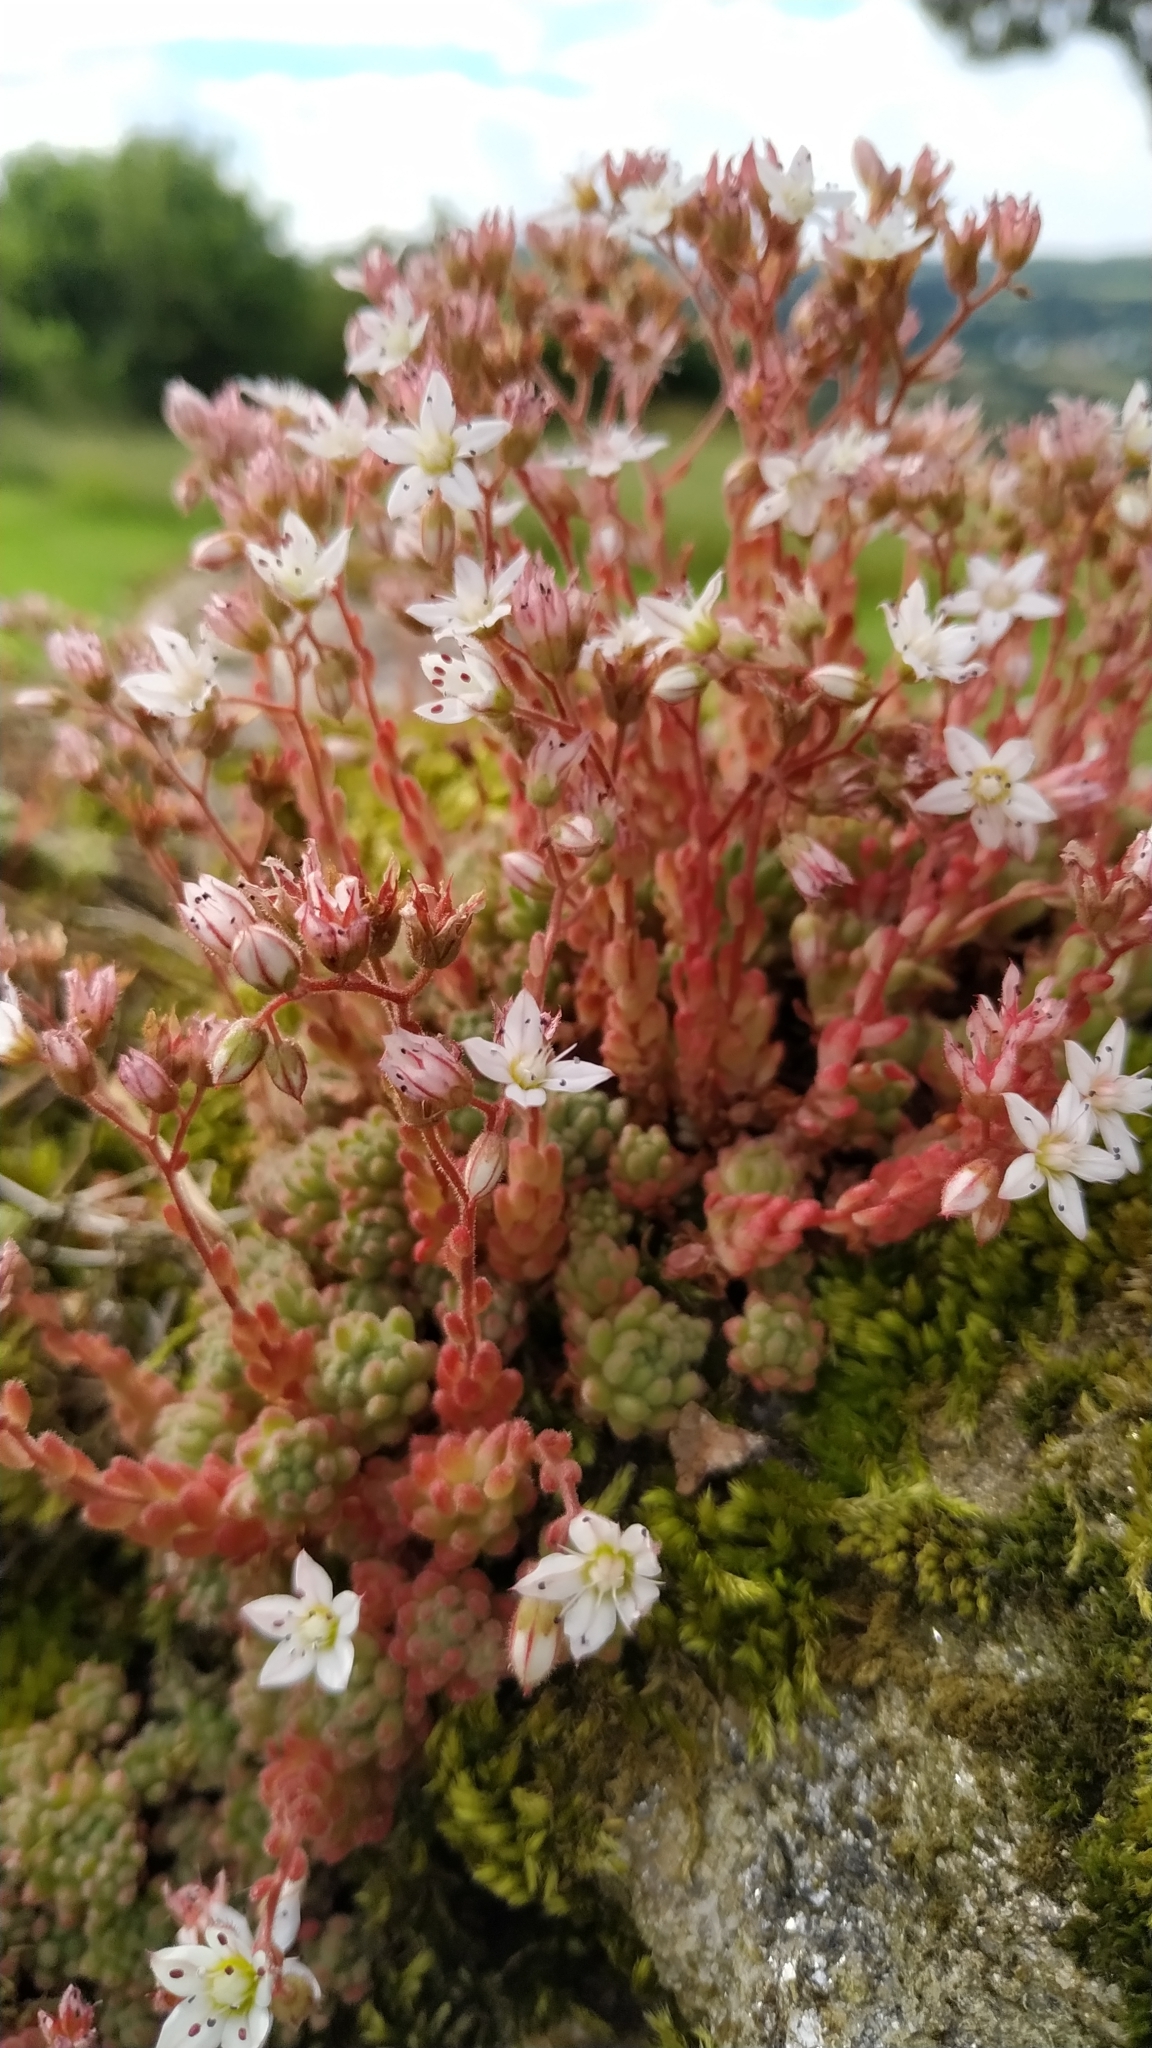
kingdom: Plantae
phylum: Tracheophyta
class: Magnoliopsida
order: Saxifragales
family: Crassulaceae
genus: Sedum
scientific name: Sedum hirsutum
